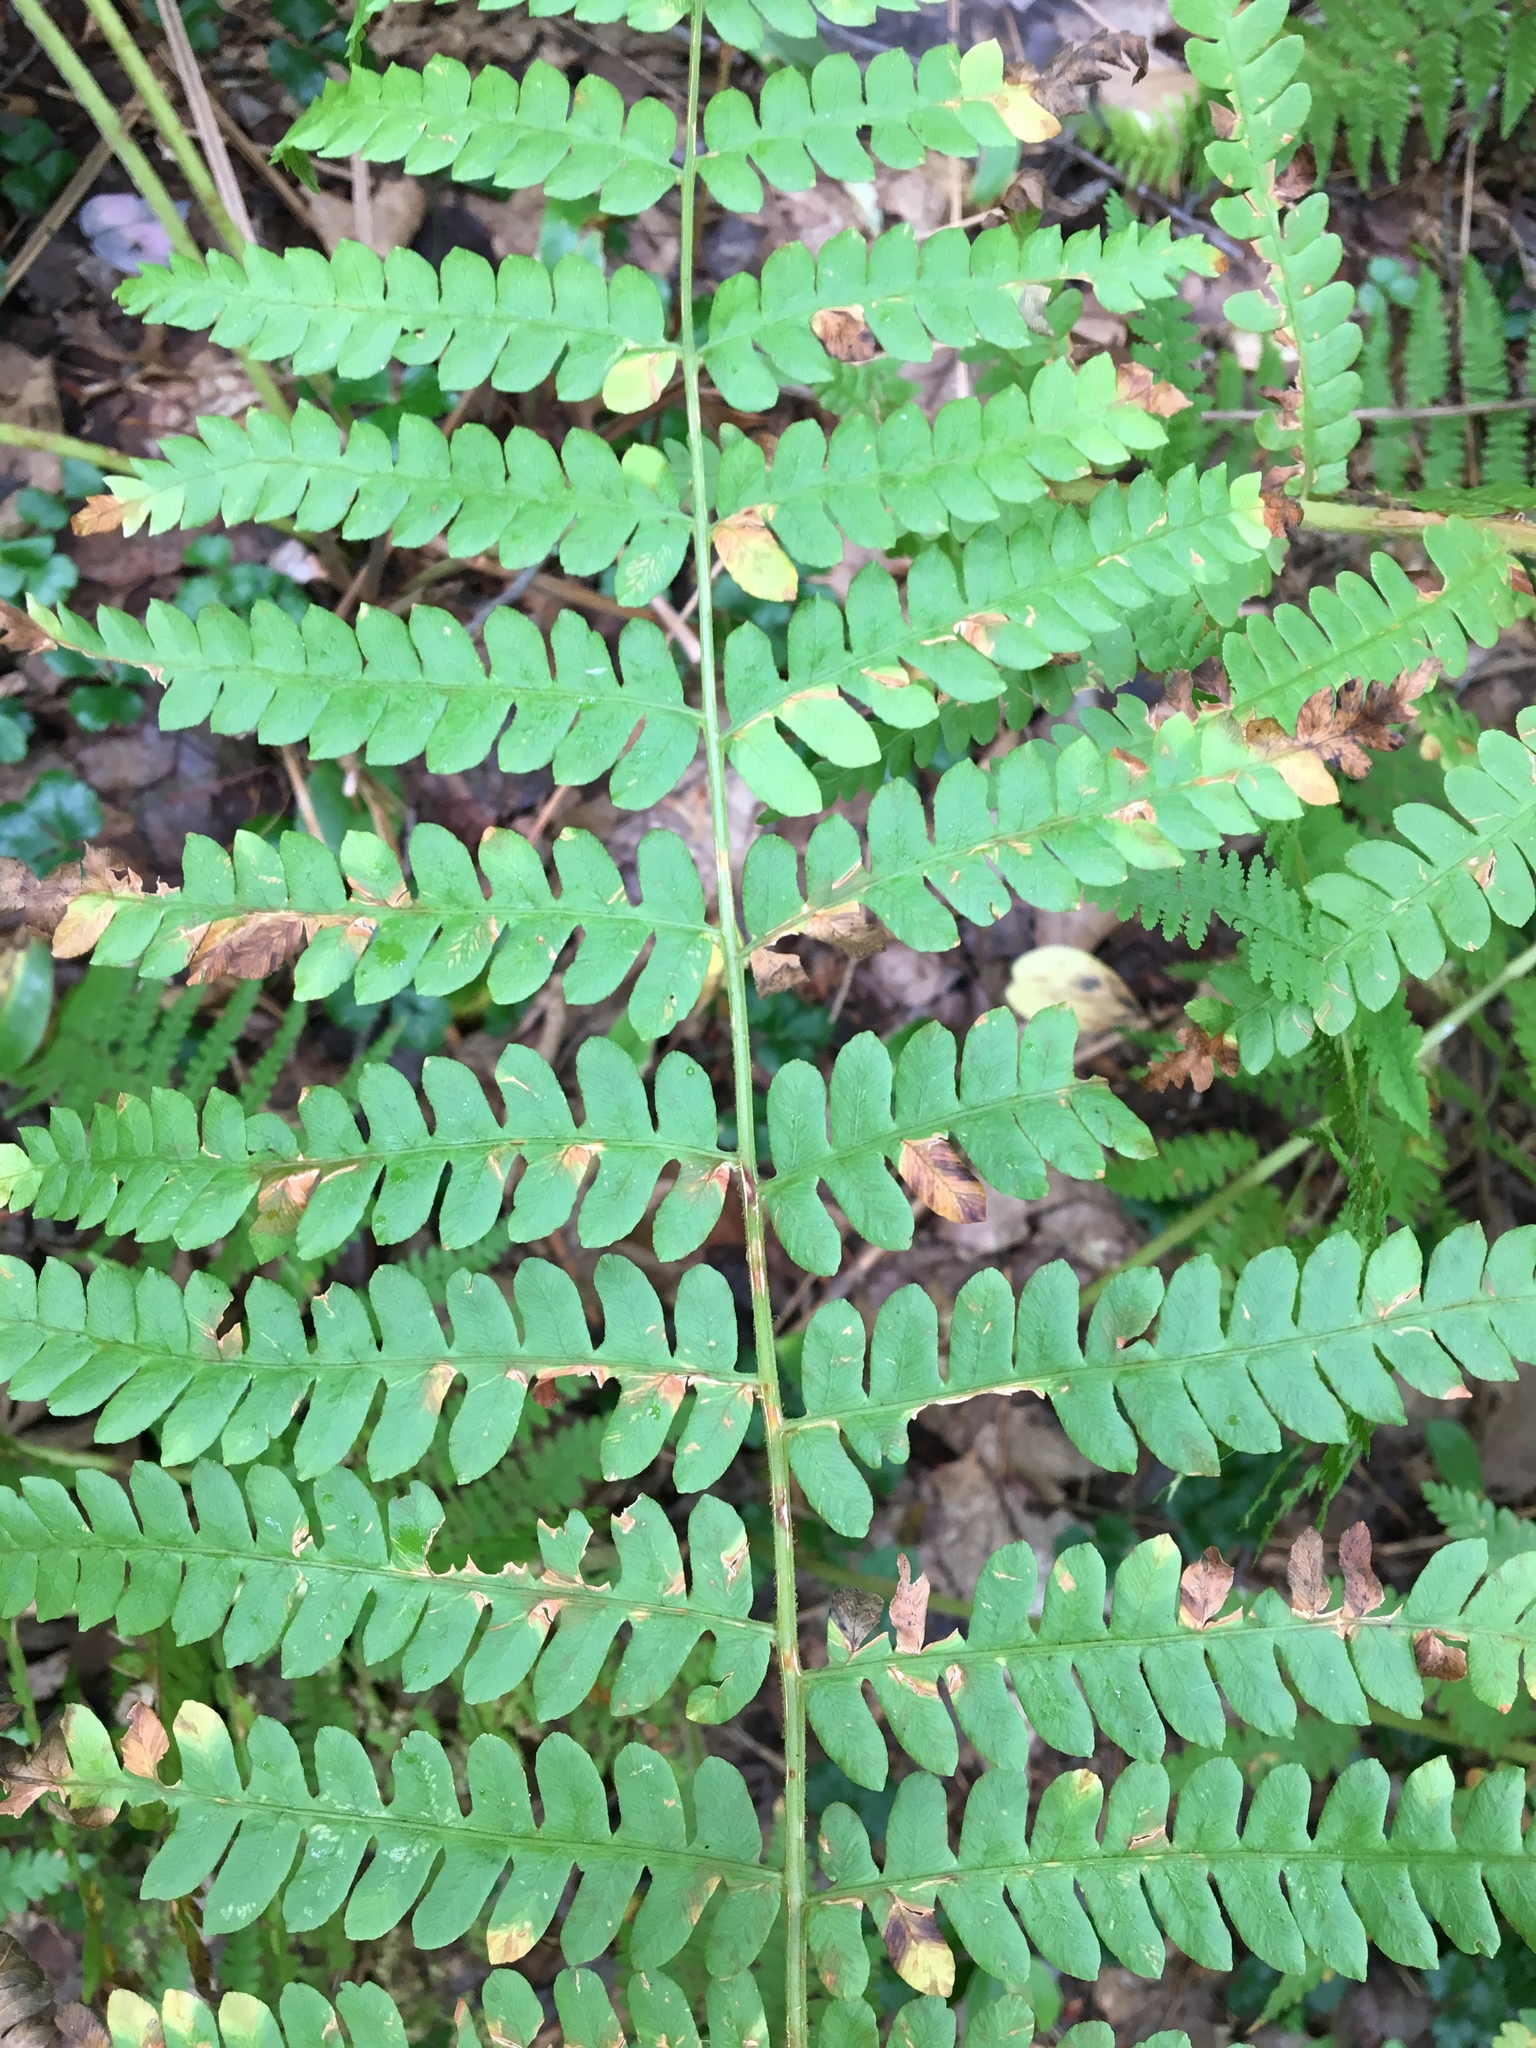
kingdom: Plantae
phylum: Tracheophyta
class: Polypodiopsida
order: Osmundales
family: Osmundaceae
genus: Osmundastrum
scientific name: Osmundastrum cinnamomeum
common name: Cinnamon fern
